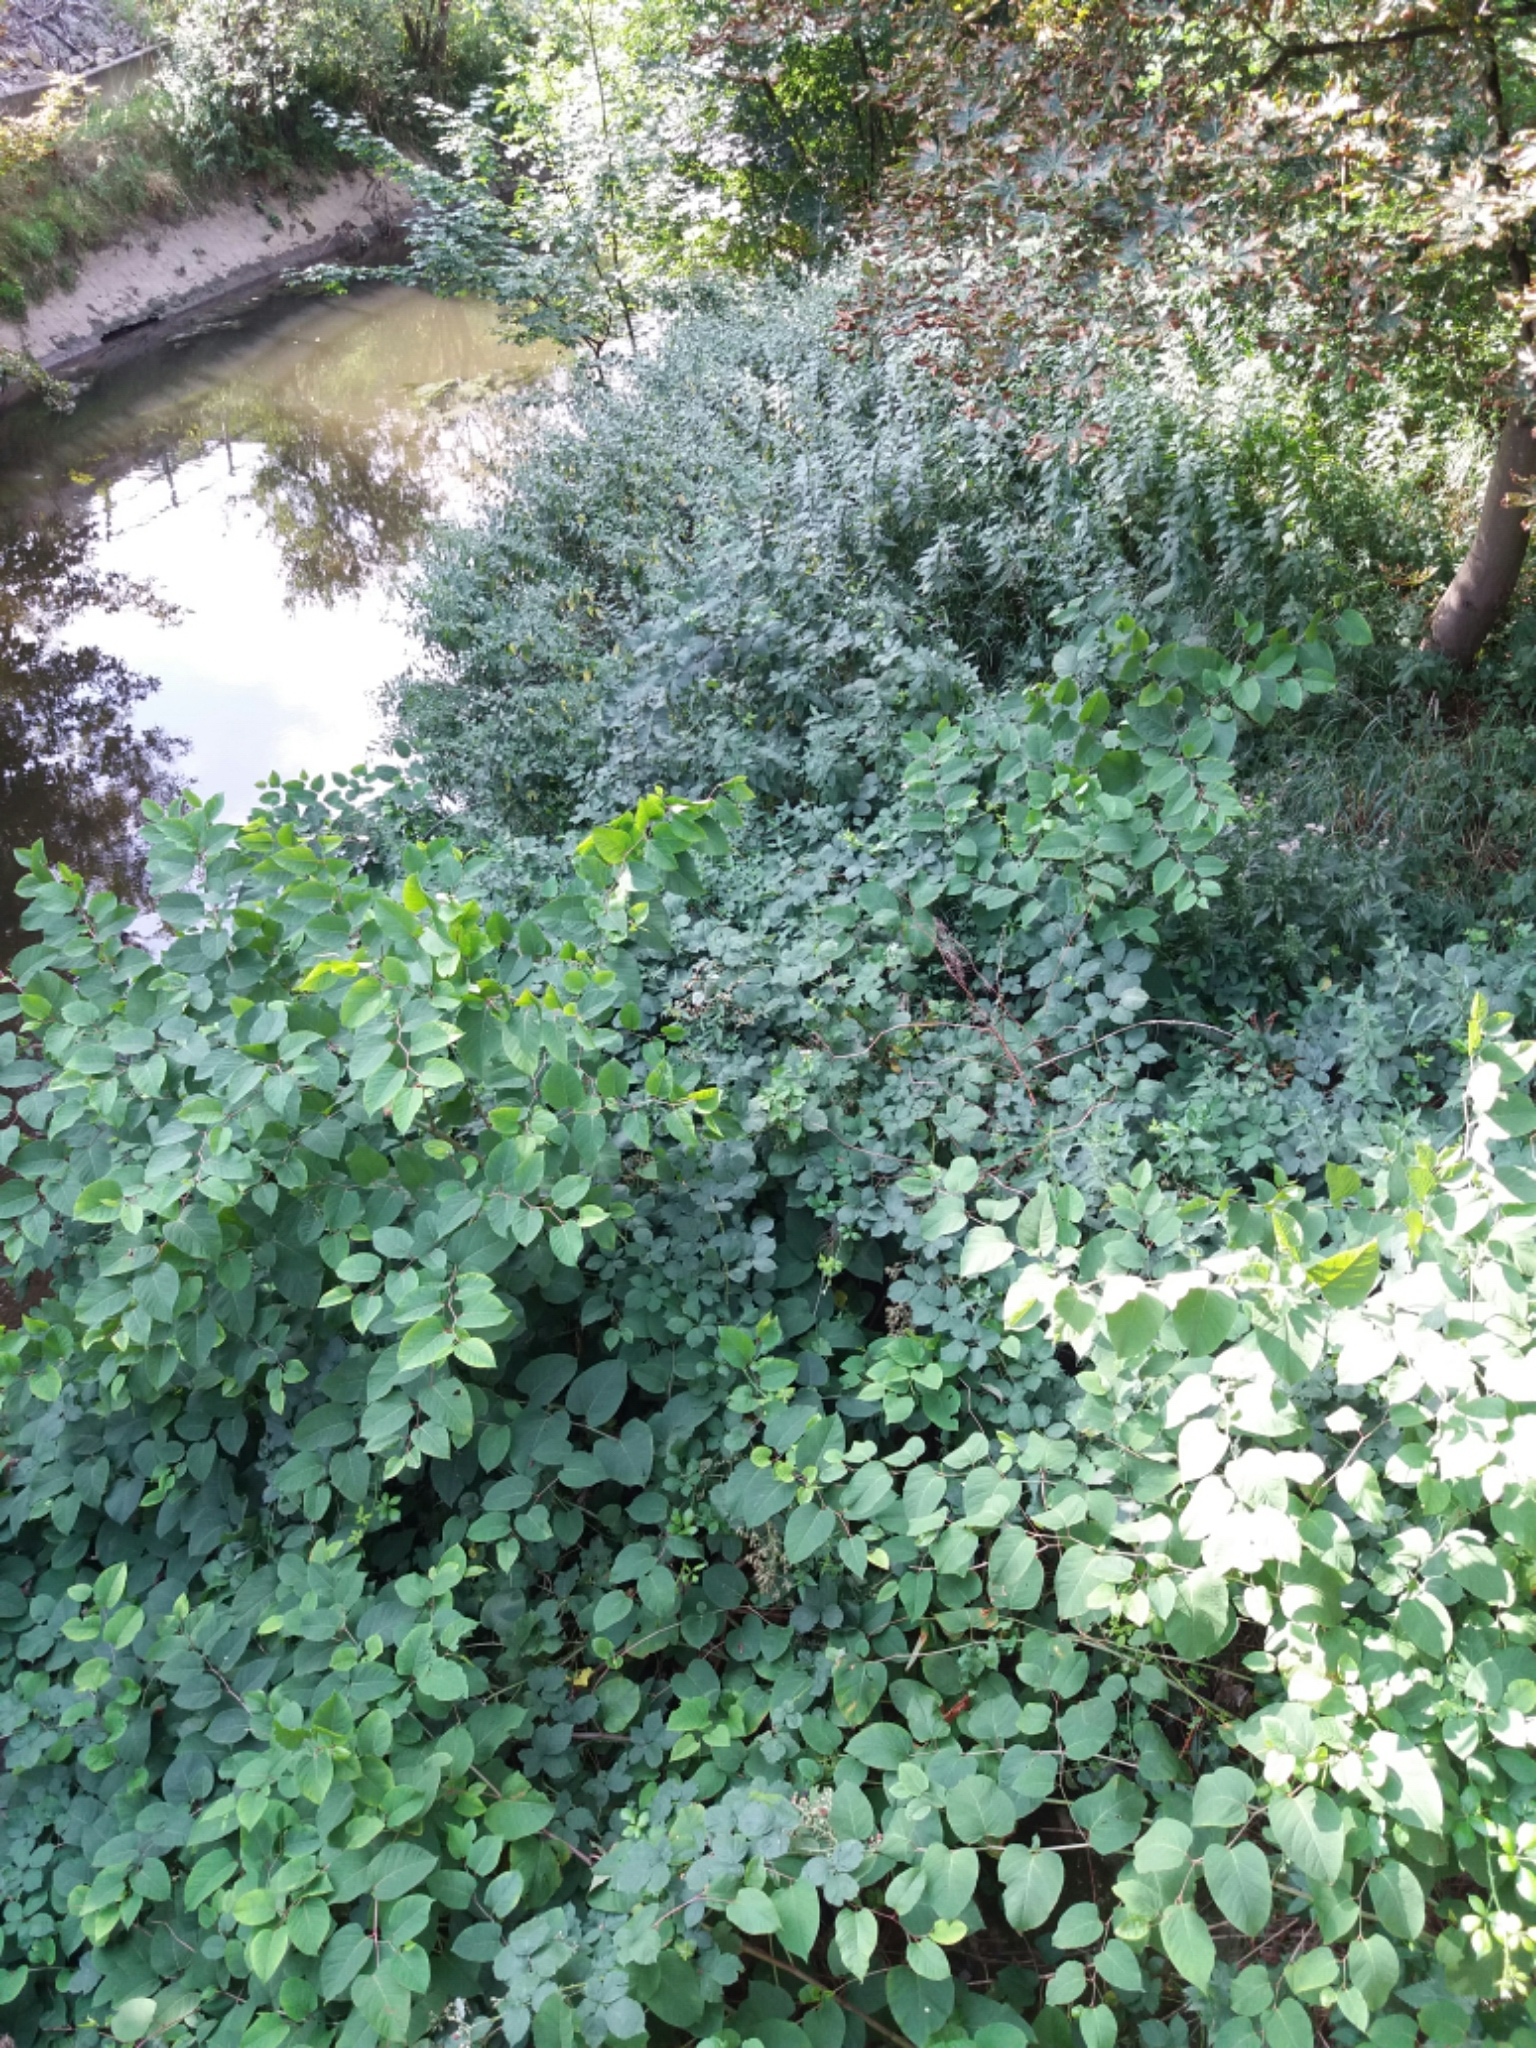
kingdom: Plantae
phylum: Tracheophyta
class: Magnoliopsida
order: Rosales
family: Urticaceae
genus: Urtica
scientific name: Urtica dioica
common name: Common nettle
